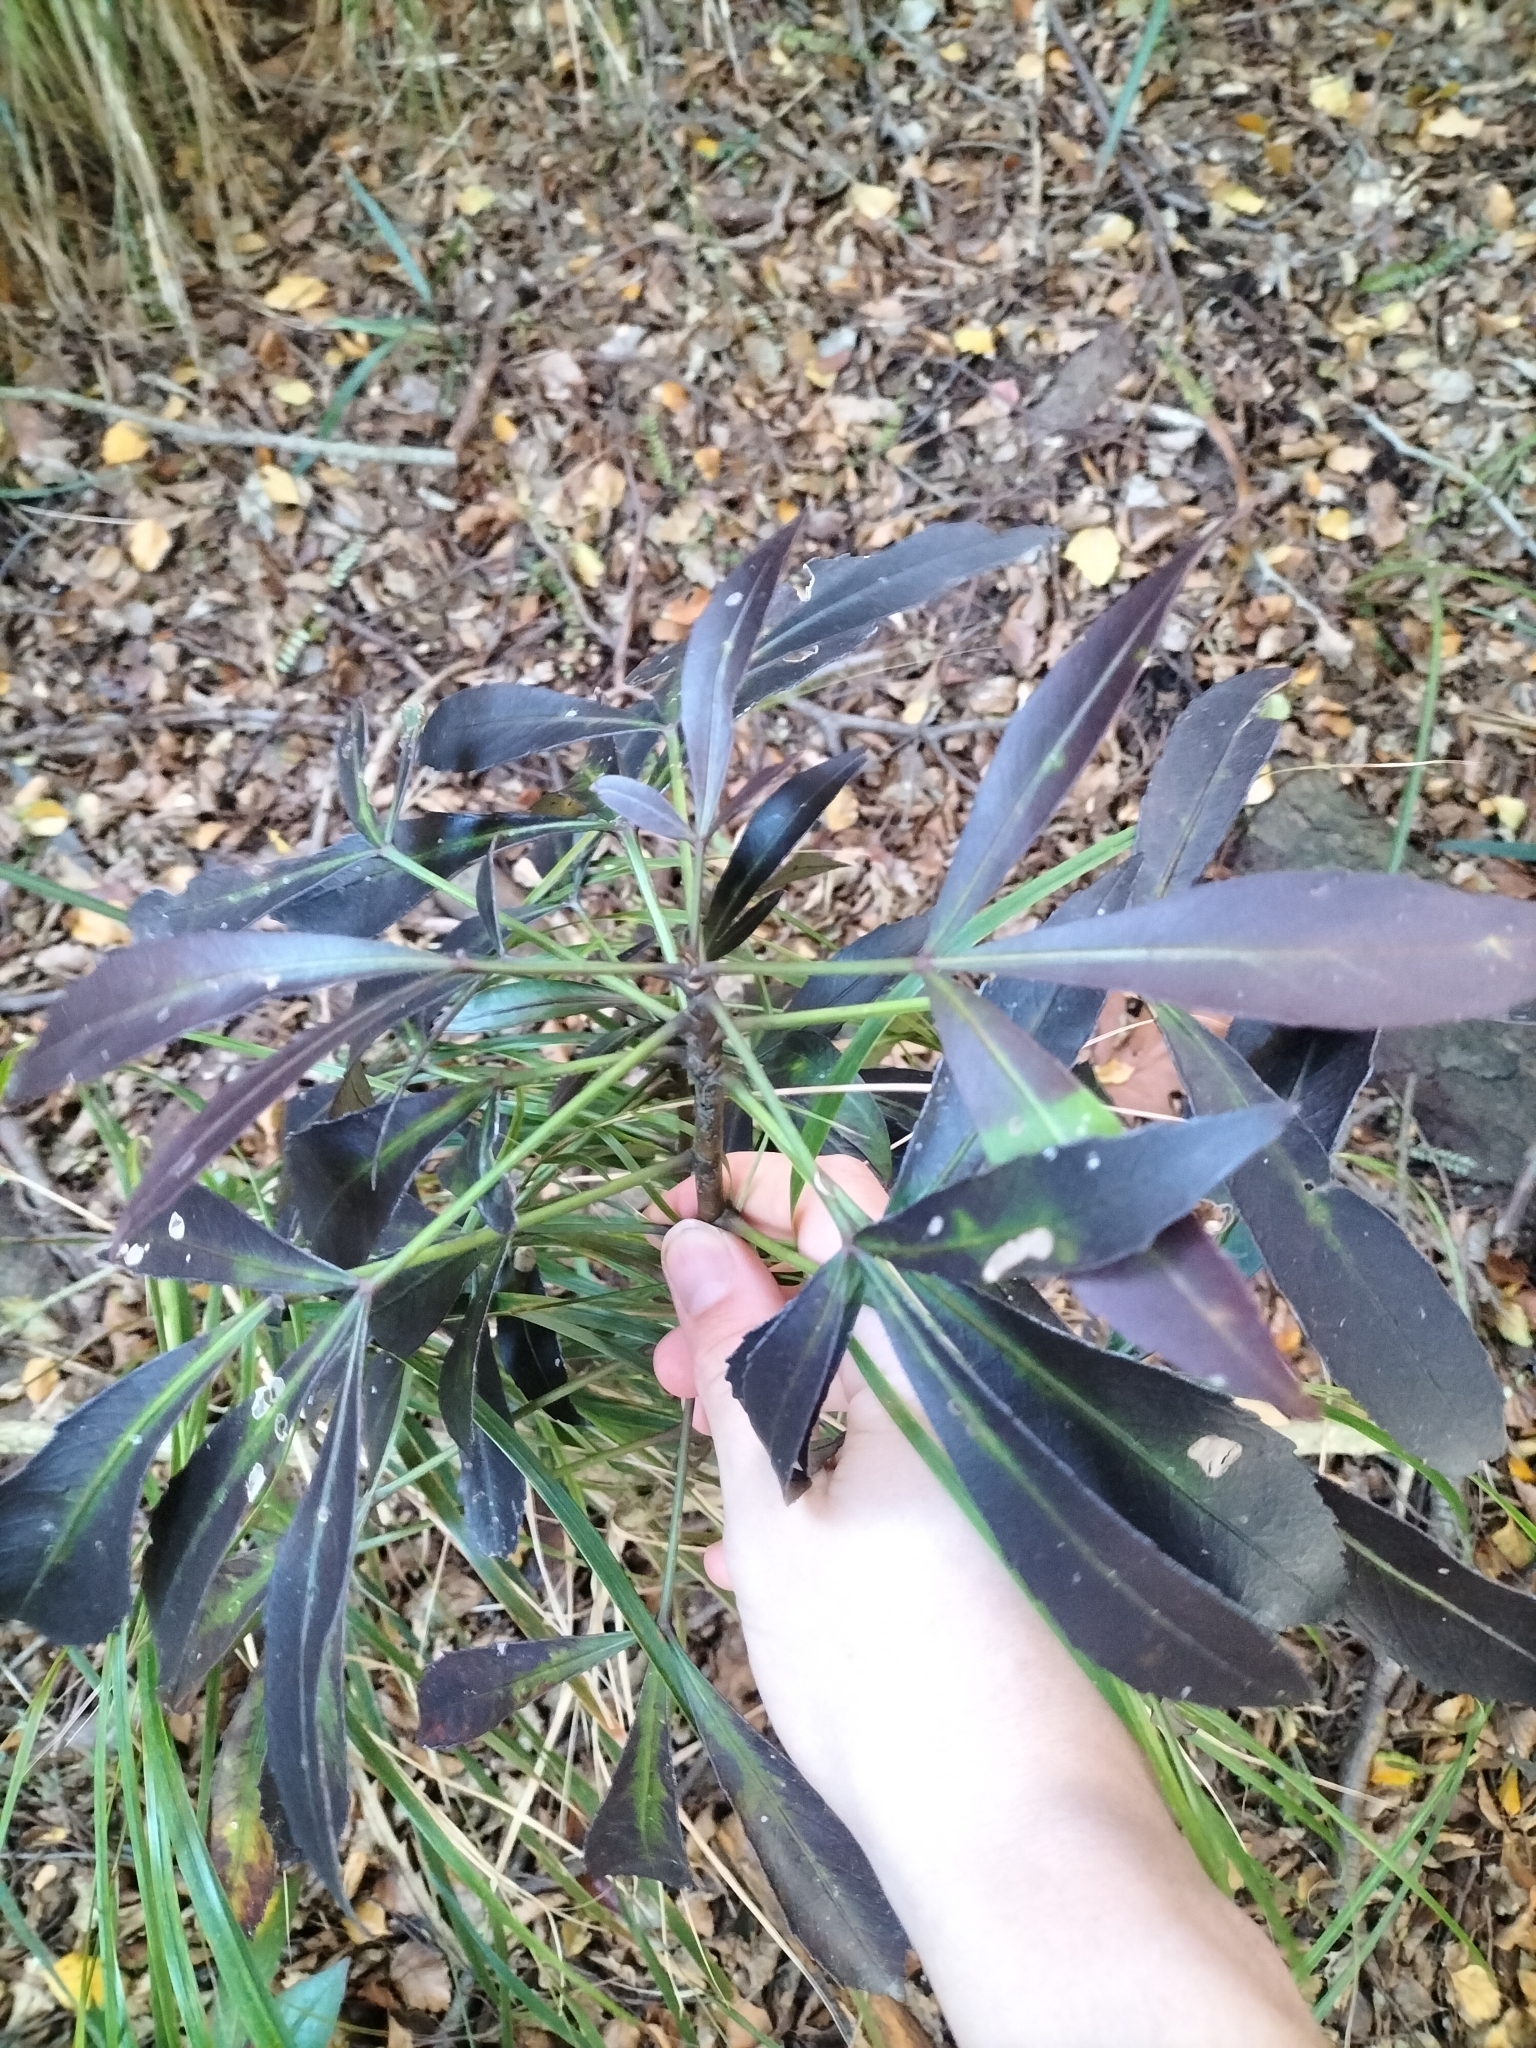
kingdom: Plantae
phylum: Tracheophyta
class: Magnoliopsida
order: Apiales
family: Araliaceae
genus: Pseudopanax
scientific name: Pseudopanax
